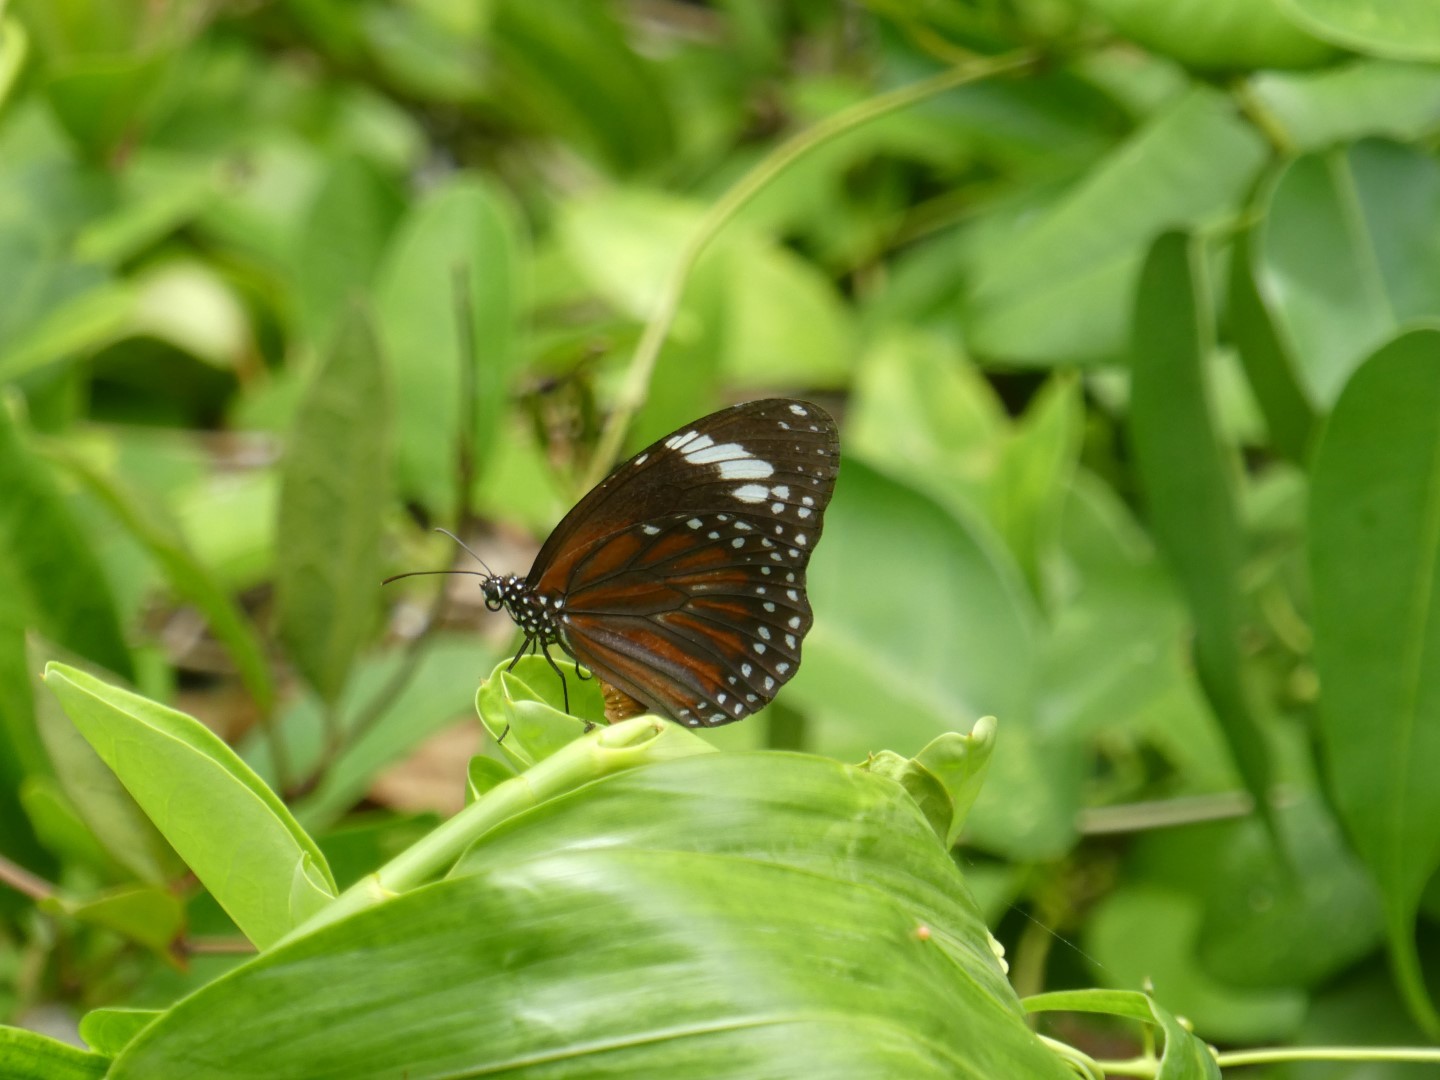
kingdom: Animalia
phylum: Arthropoda
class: Insecta
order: Lepidoptera
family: Nymphalidae
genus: Danaus
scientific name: Danaus affinis
